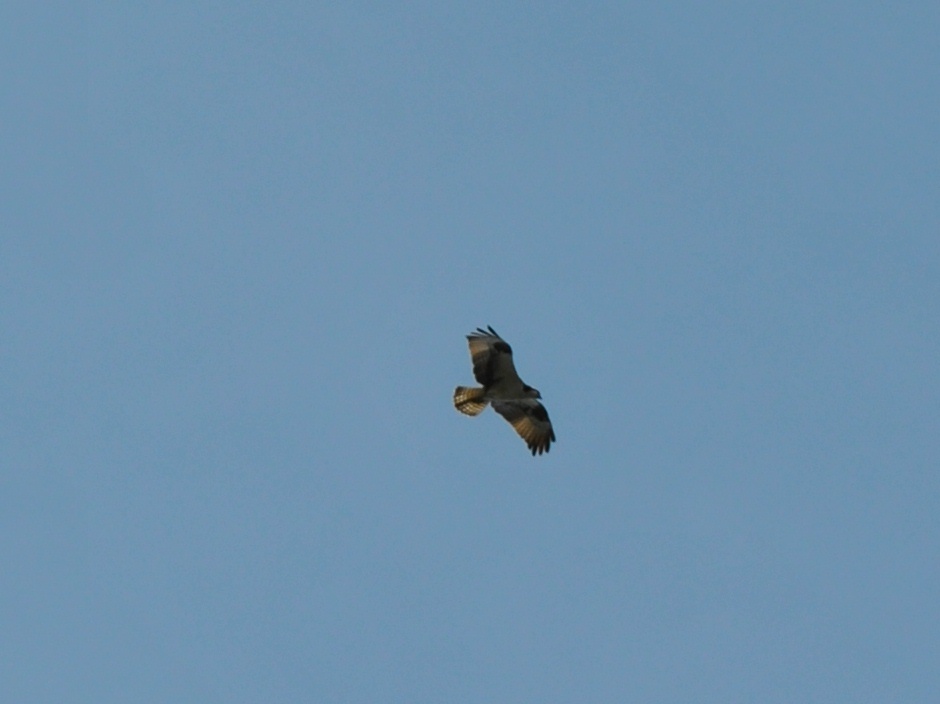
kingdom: Animalia
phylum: Chordata
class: Aves
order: Accipitriformes
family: Pandionidae
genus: Pandion
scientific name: Pandion haliaetus
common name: Osprey
